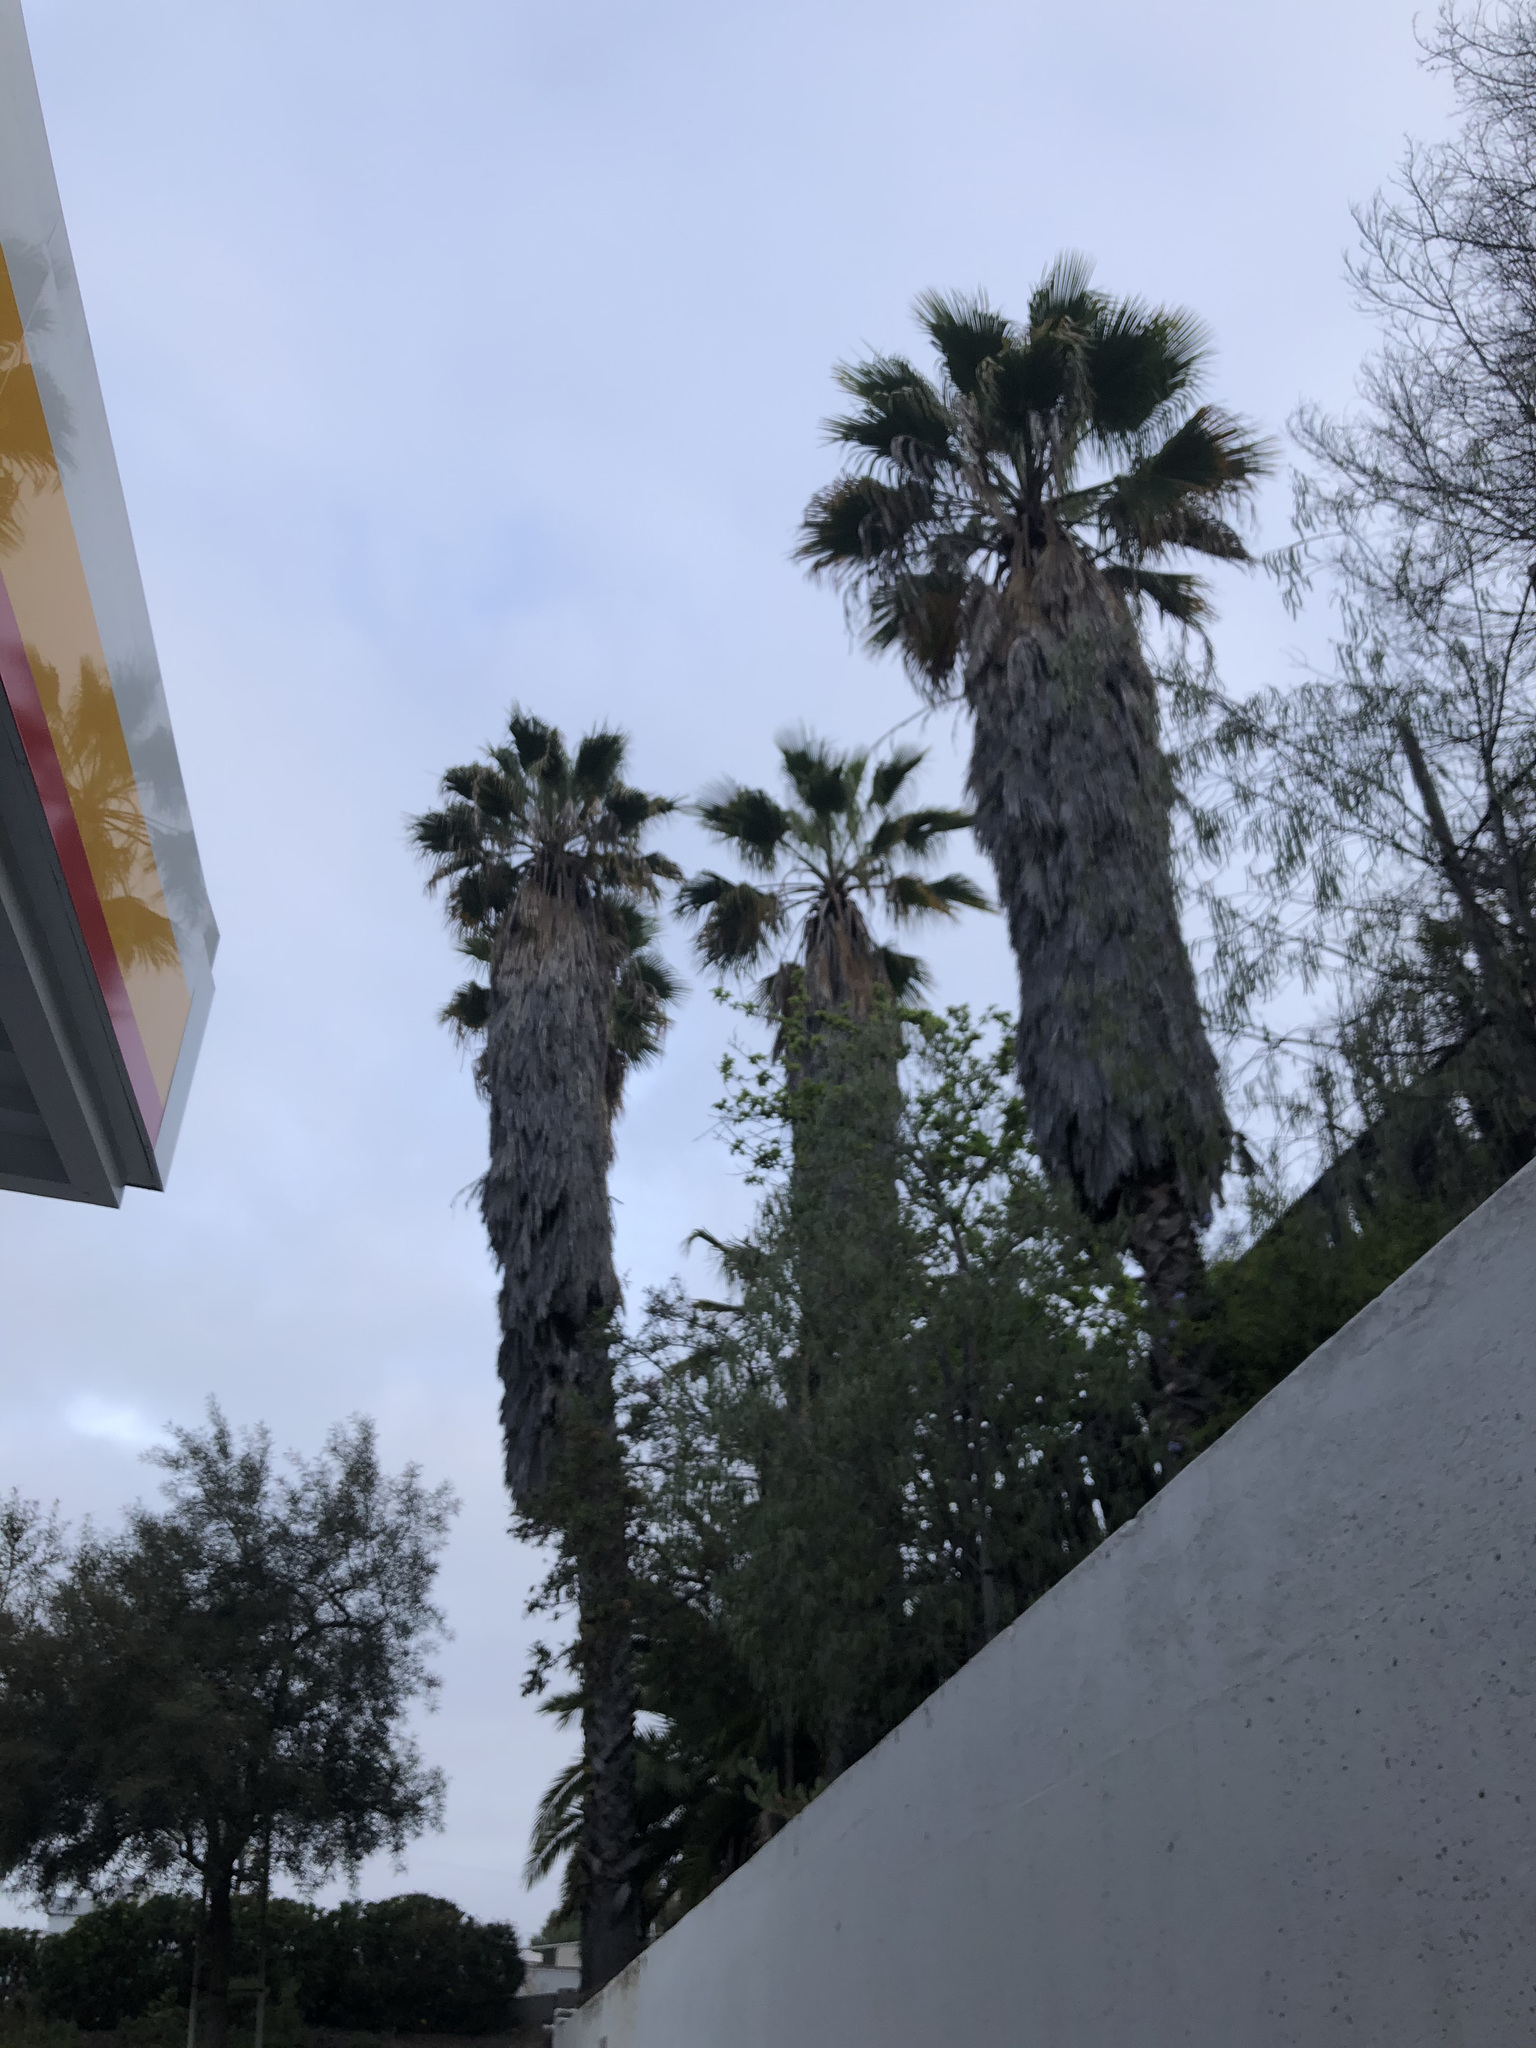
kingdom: Plantae
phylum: Tracheophyta
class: Liliopsida
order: Arecales
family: Arecaceae
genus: Washingtonia
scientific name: Washingtonia robusta
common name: Mexican fan palm
